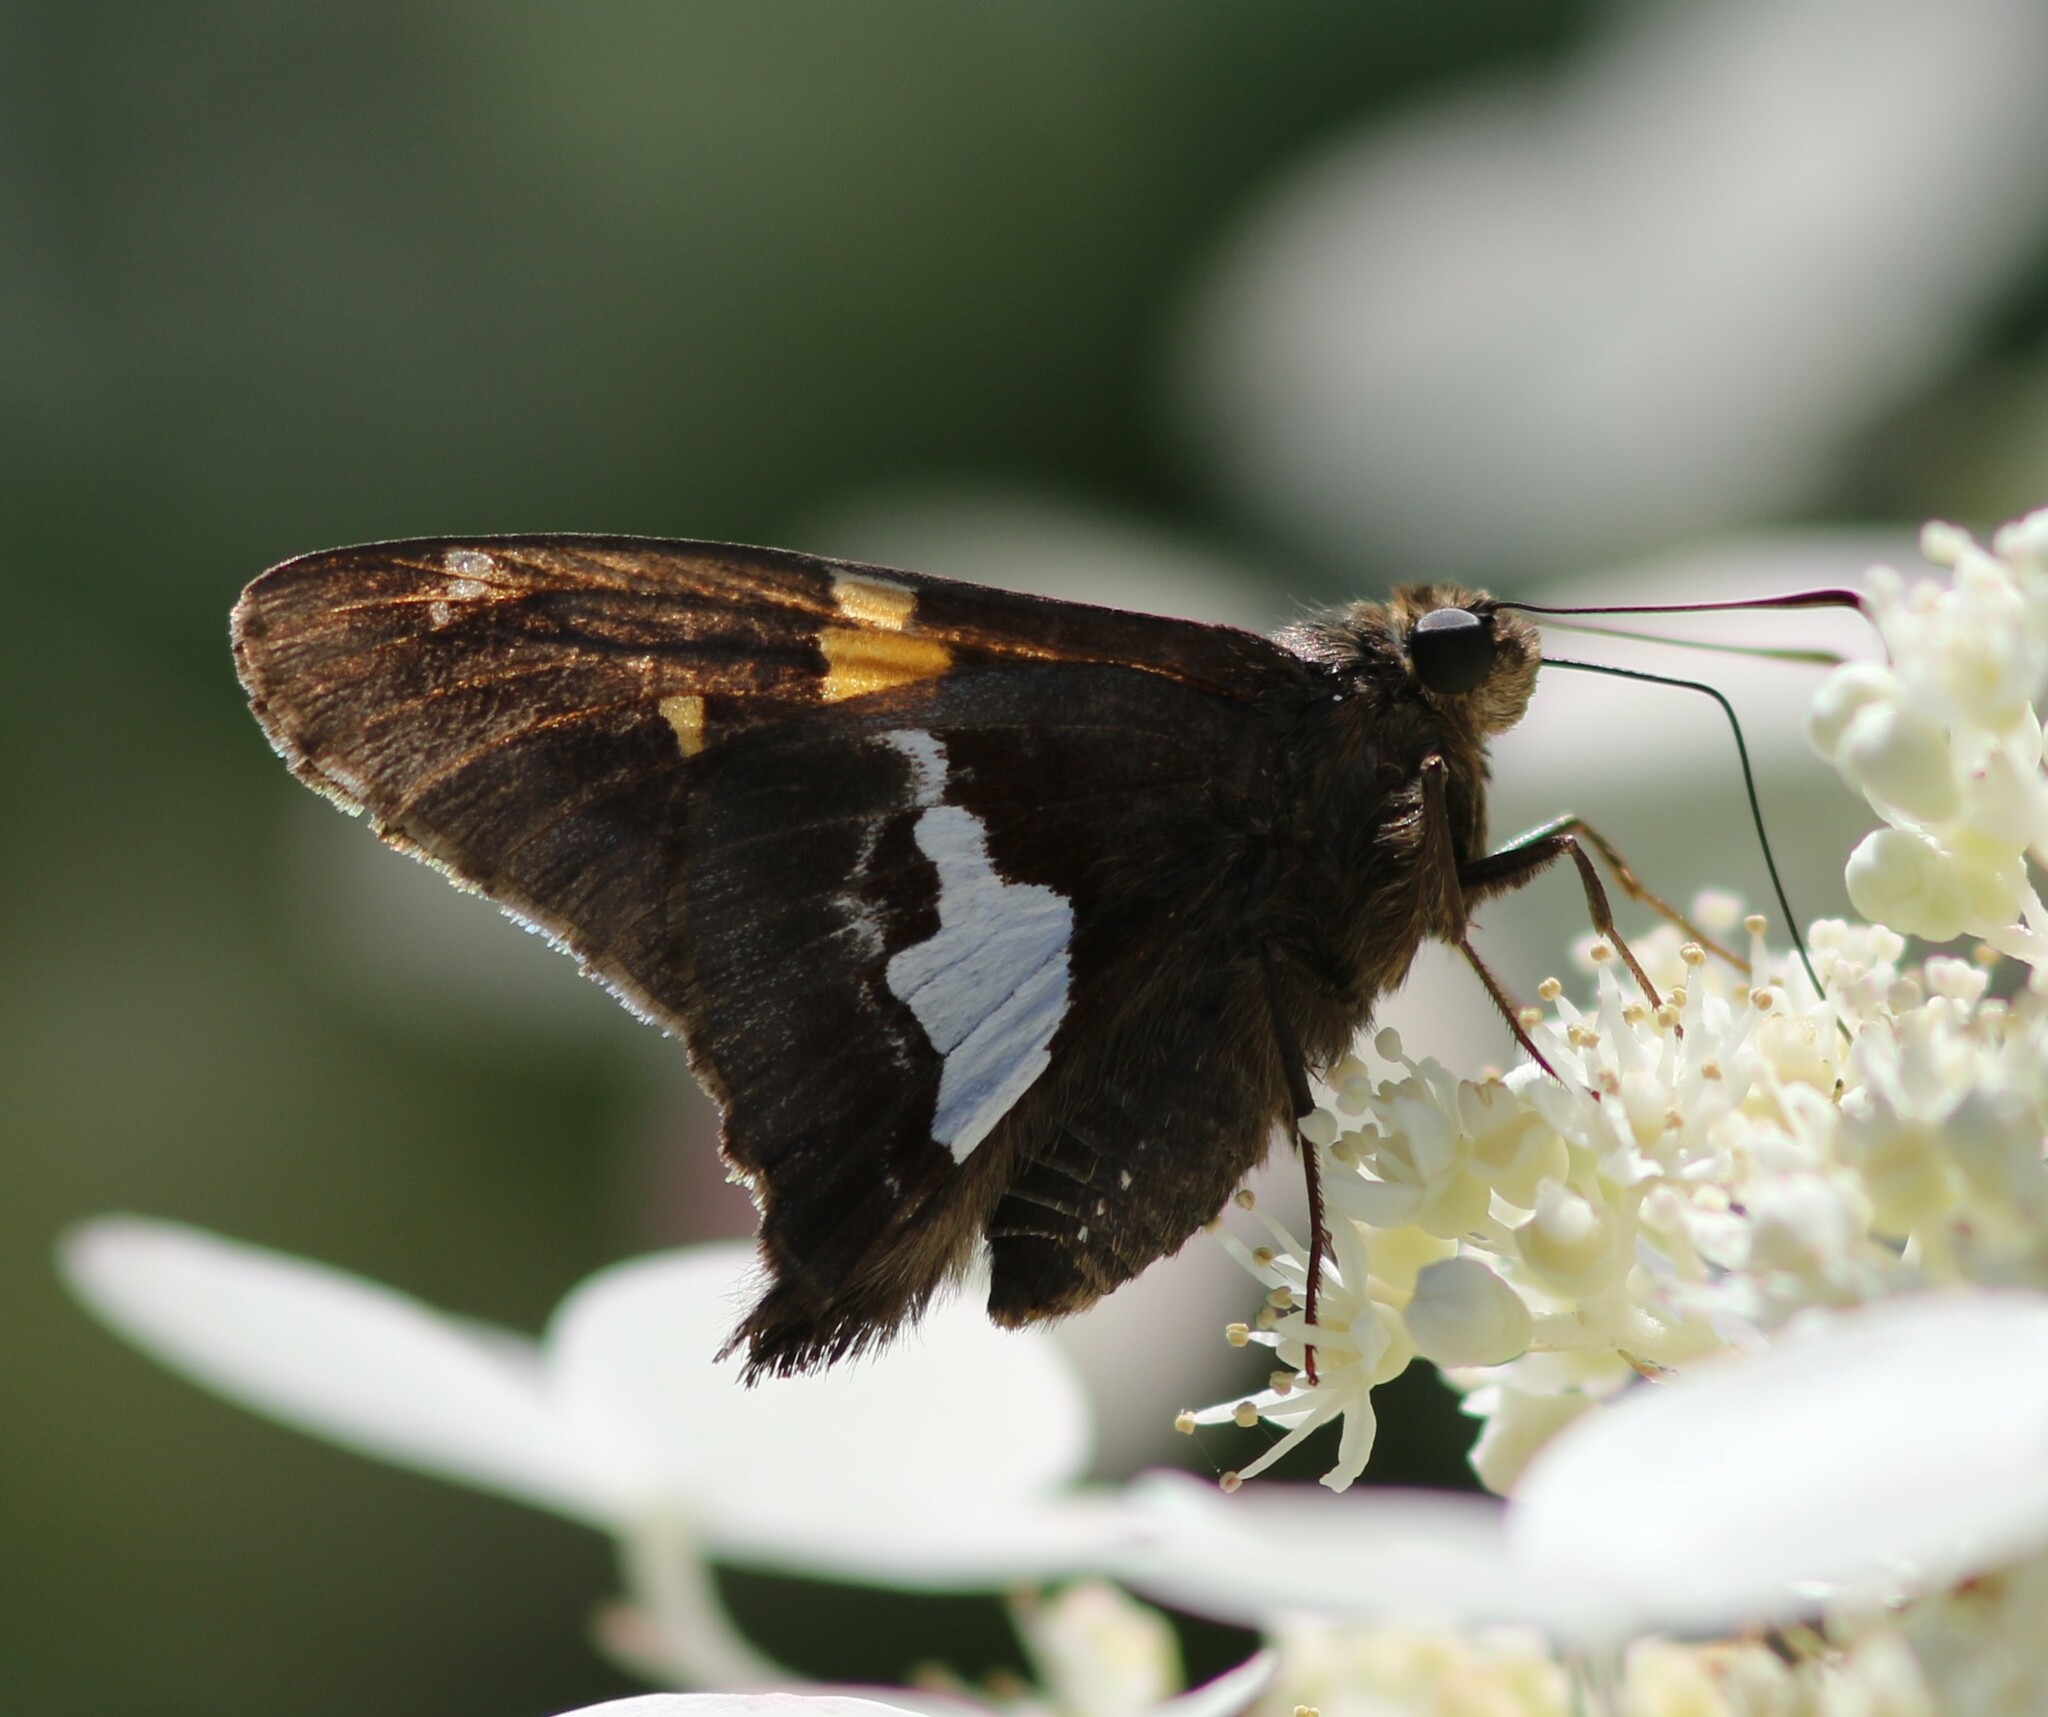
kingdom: Animalia
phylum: Arthropoda
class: Insecta
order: Lepidoptera
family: Hesperiidae
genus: Epargyreus
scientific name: Epargyreus clarus
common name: Silver-spotted skipper
